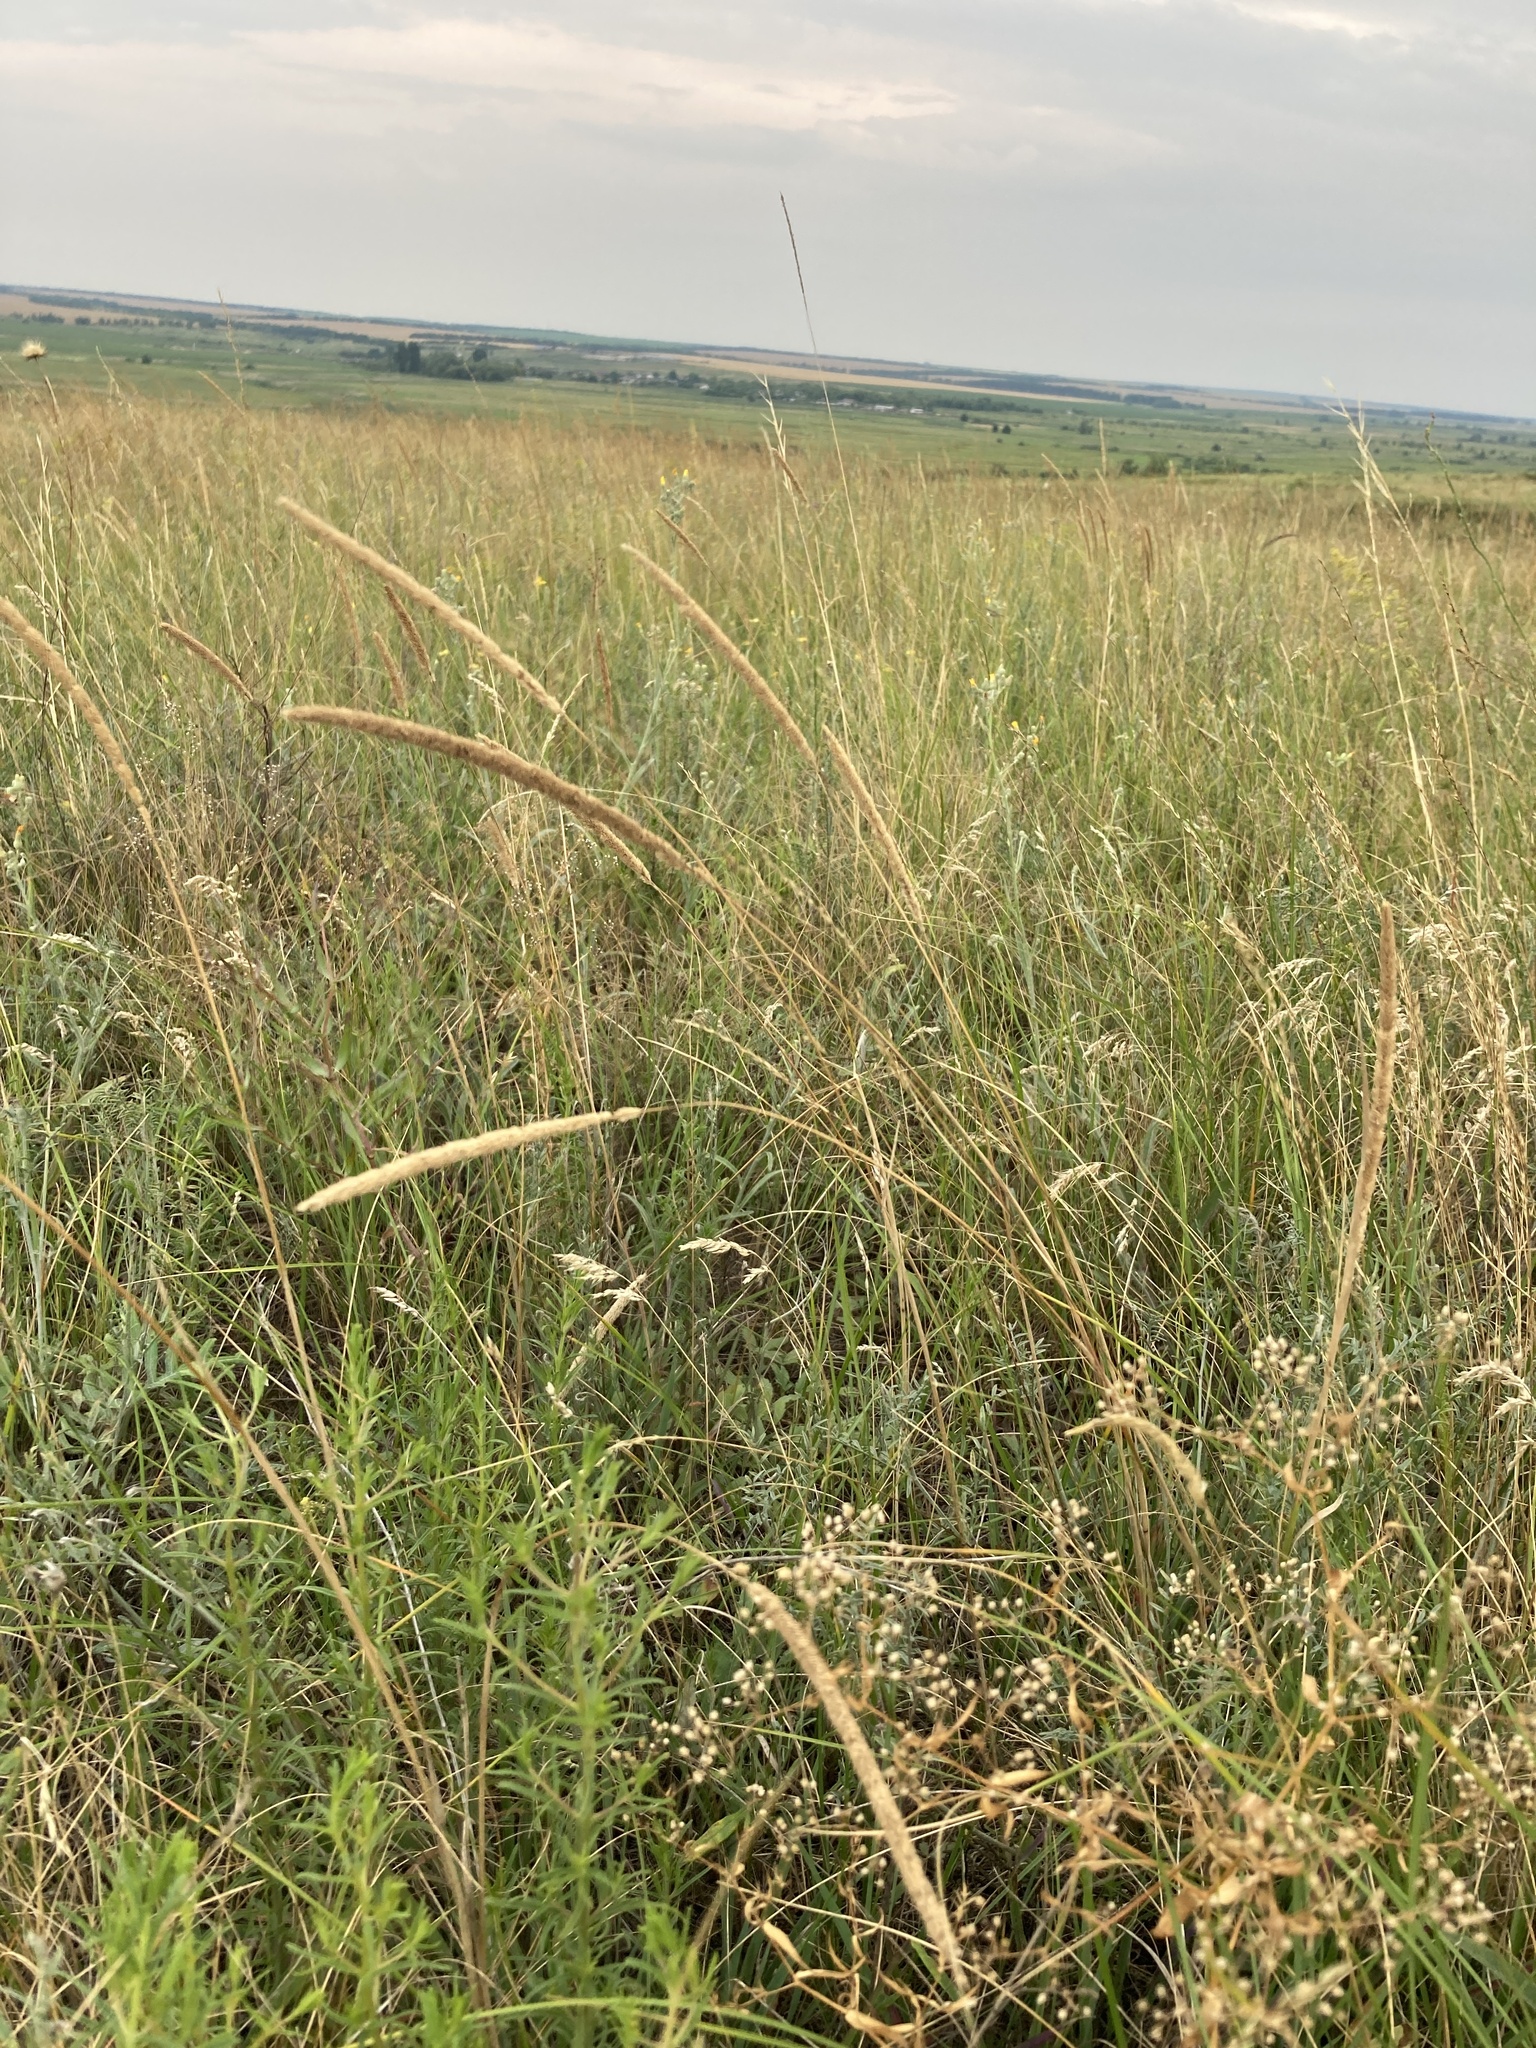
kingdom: Plantae
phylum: Tracheophyta
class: Liliopsida
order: Poales
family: Poaceae
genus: Phleum
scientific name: Phleum phleoides
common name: Purple-stem cat's-tail
